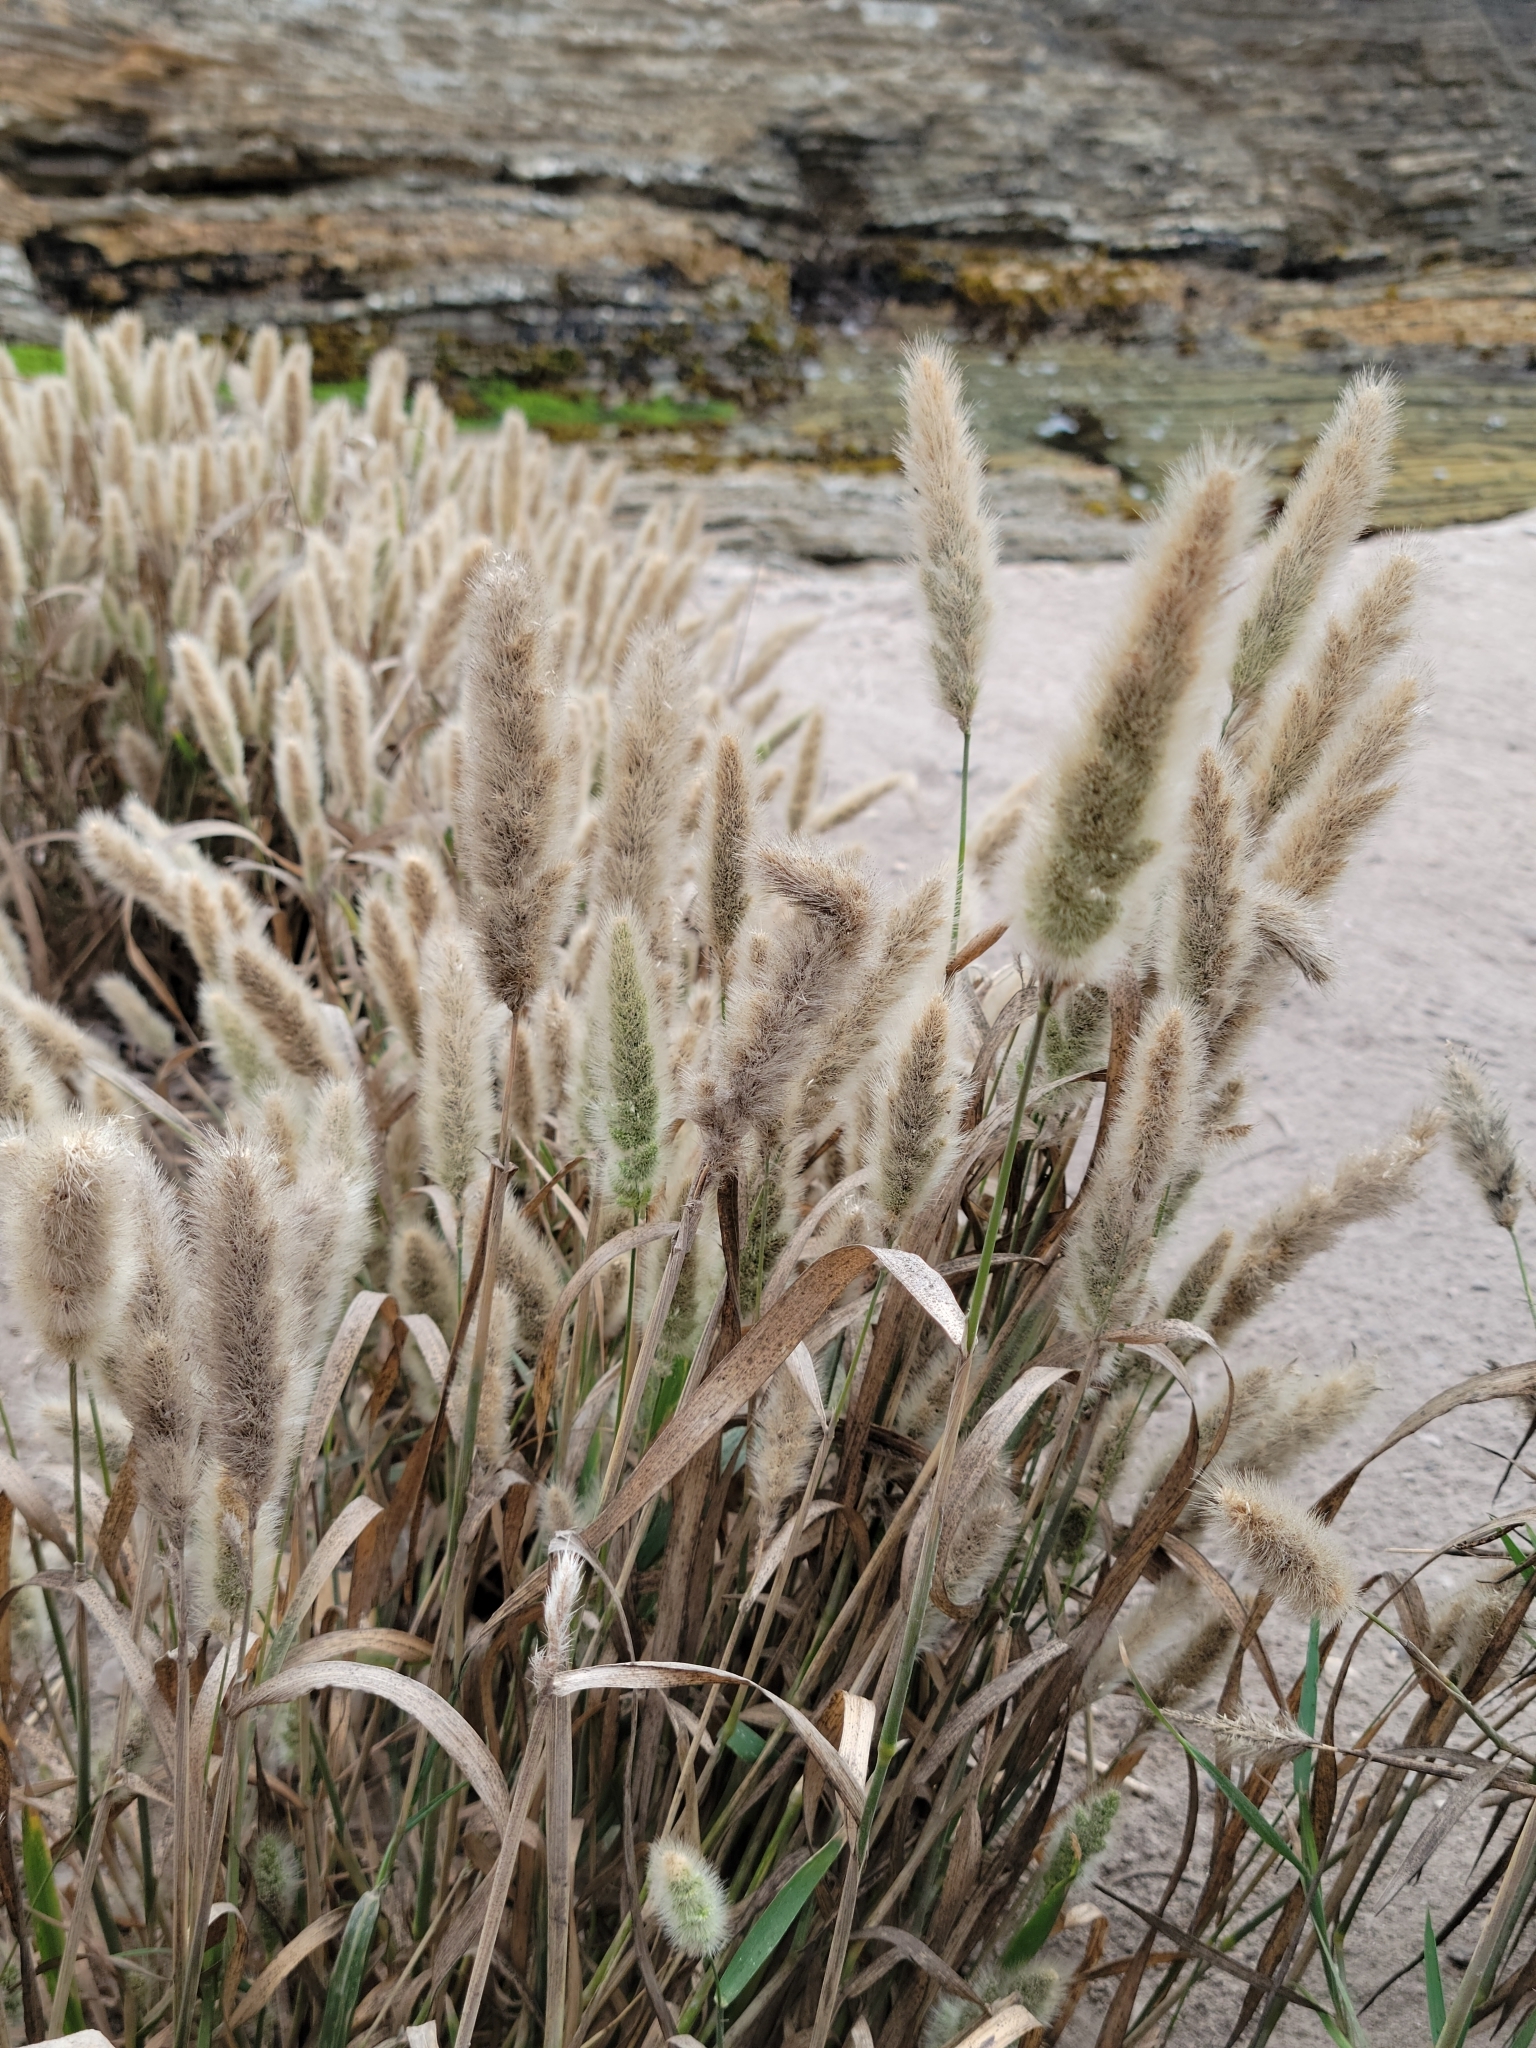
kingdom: Plantae
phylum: Tracheophyta
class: Liliopsida
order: Poales
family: Poaceae
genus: Polypogon
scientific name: Polypogon monspeliensis
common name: Annual rabbitsfoot grass
